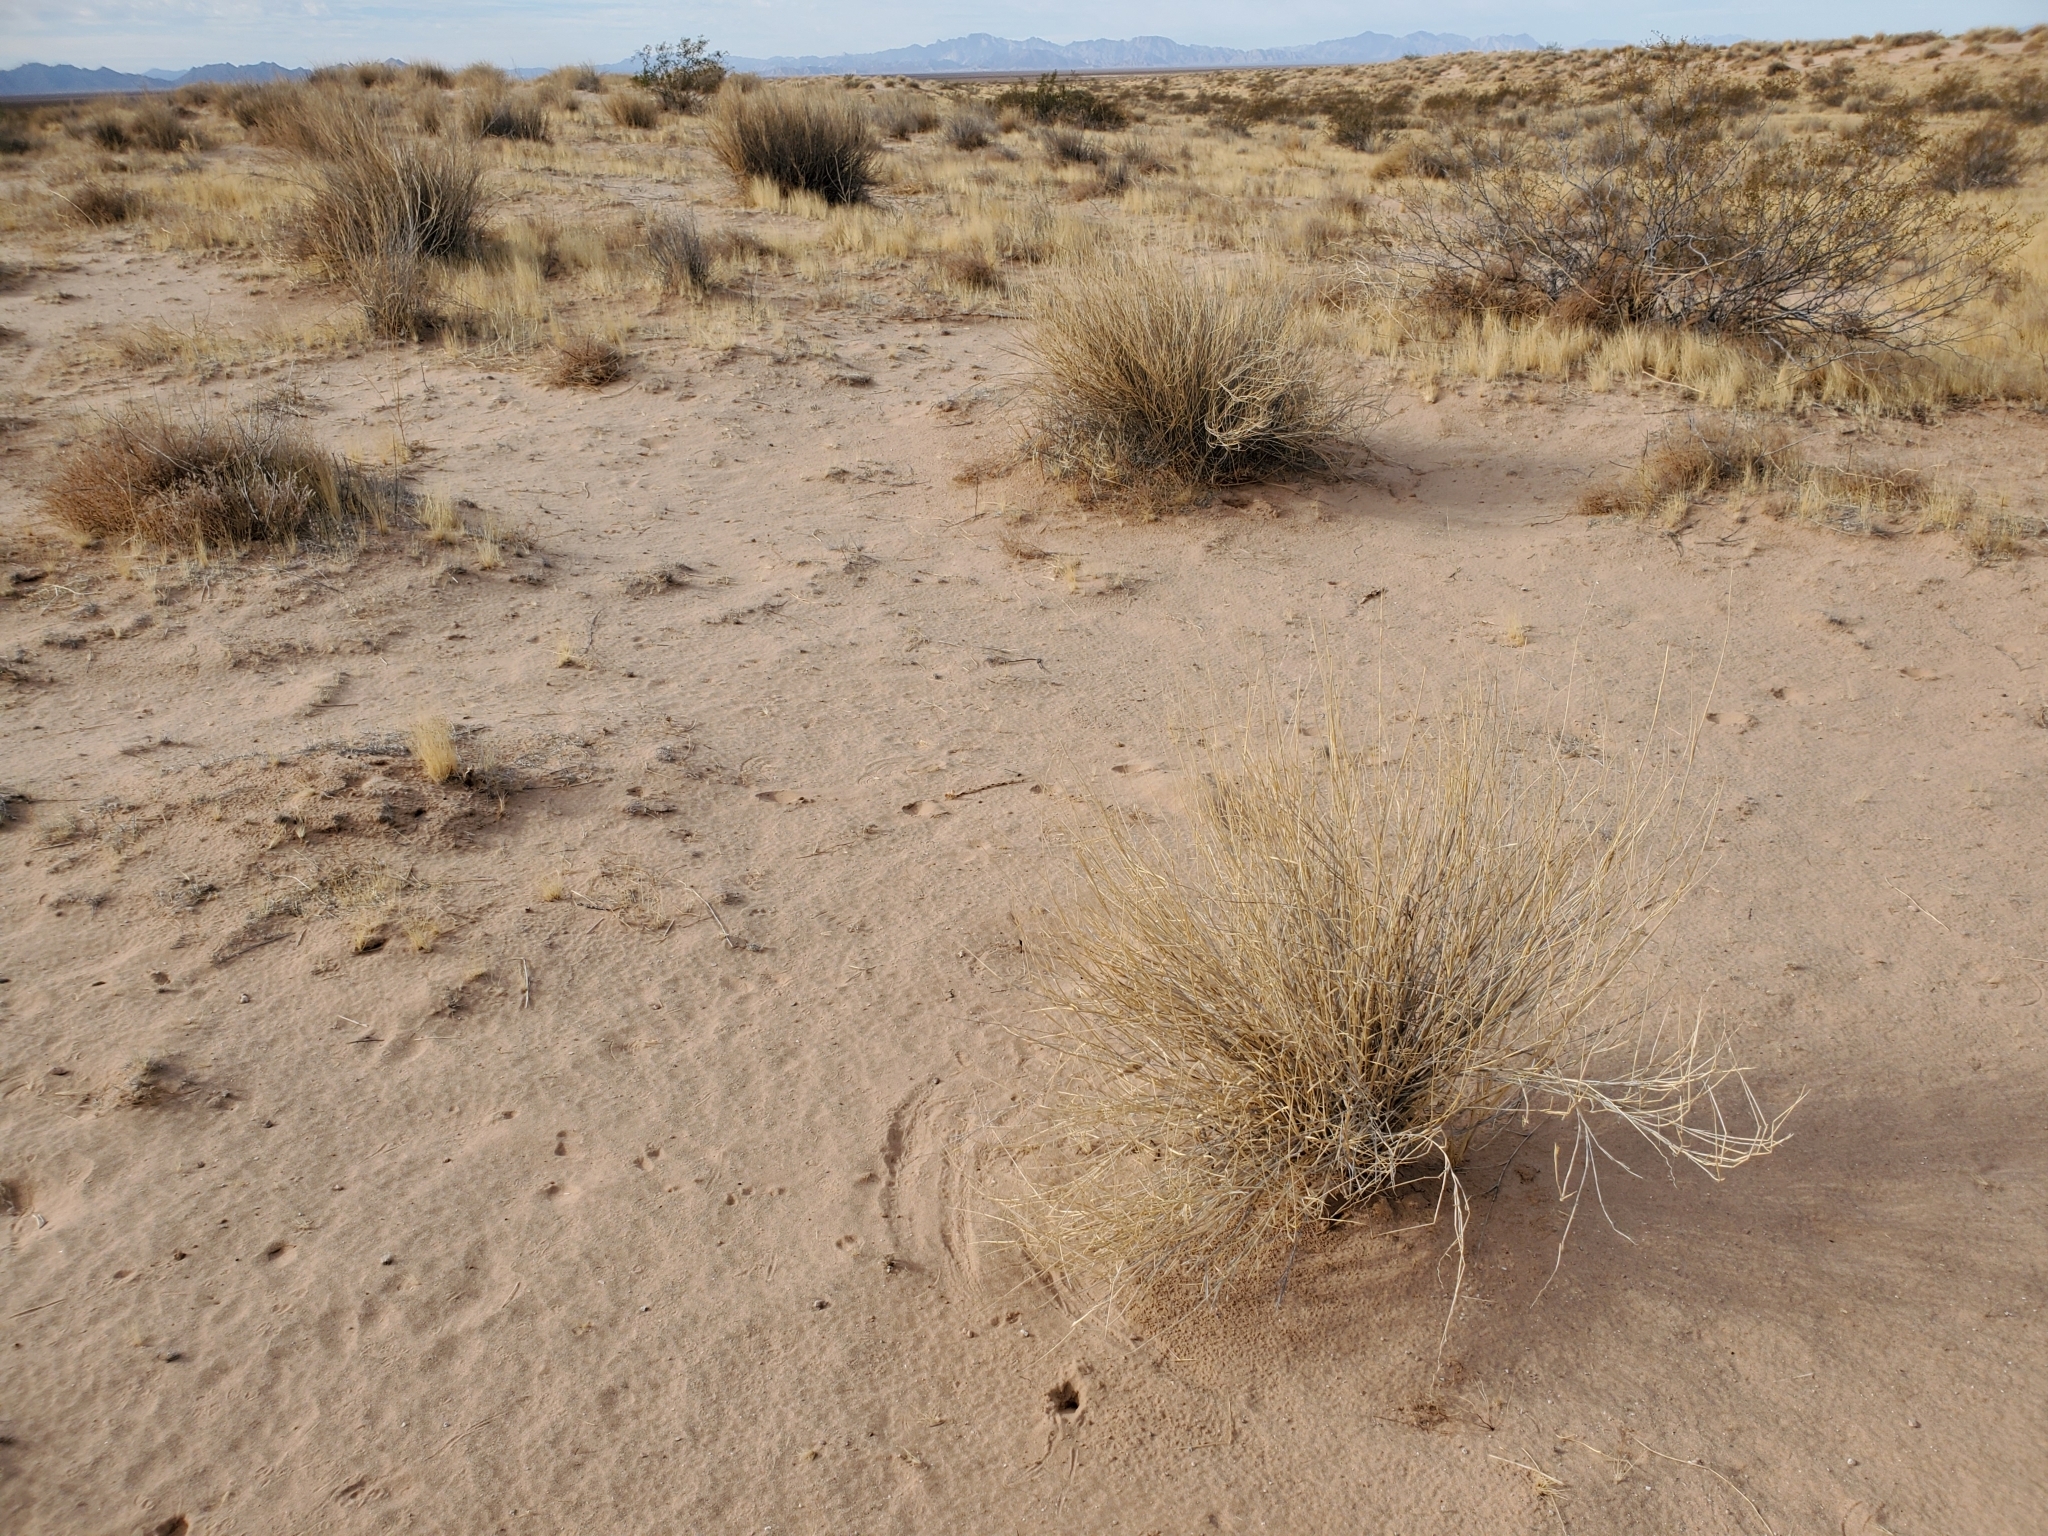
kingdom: Plantae
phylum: Tracheophyta
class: Liliopsida
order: Poales
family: Poaceae
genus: Hilaria
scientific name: Hilaria rigida
